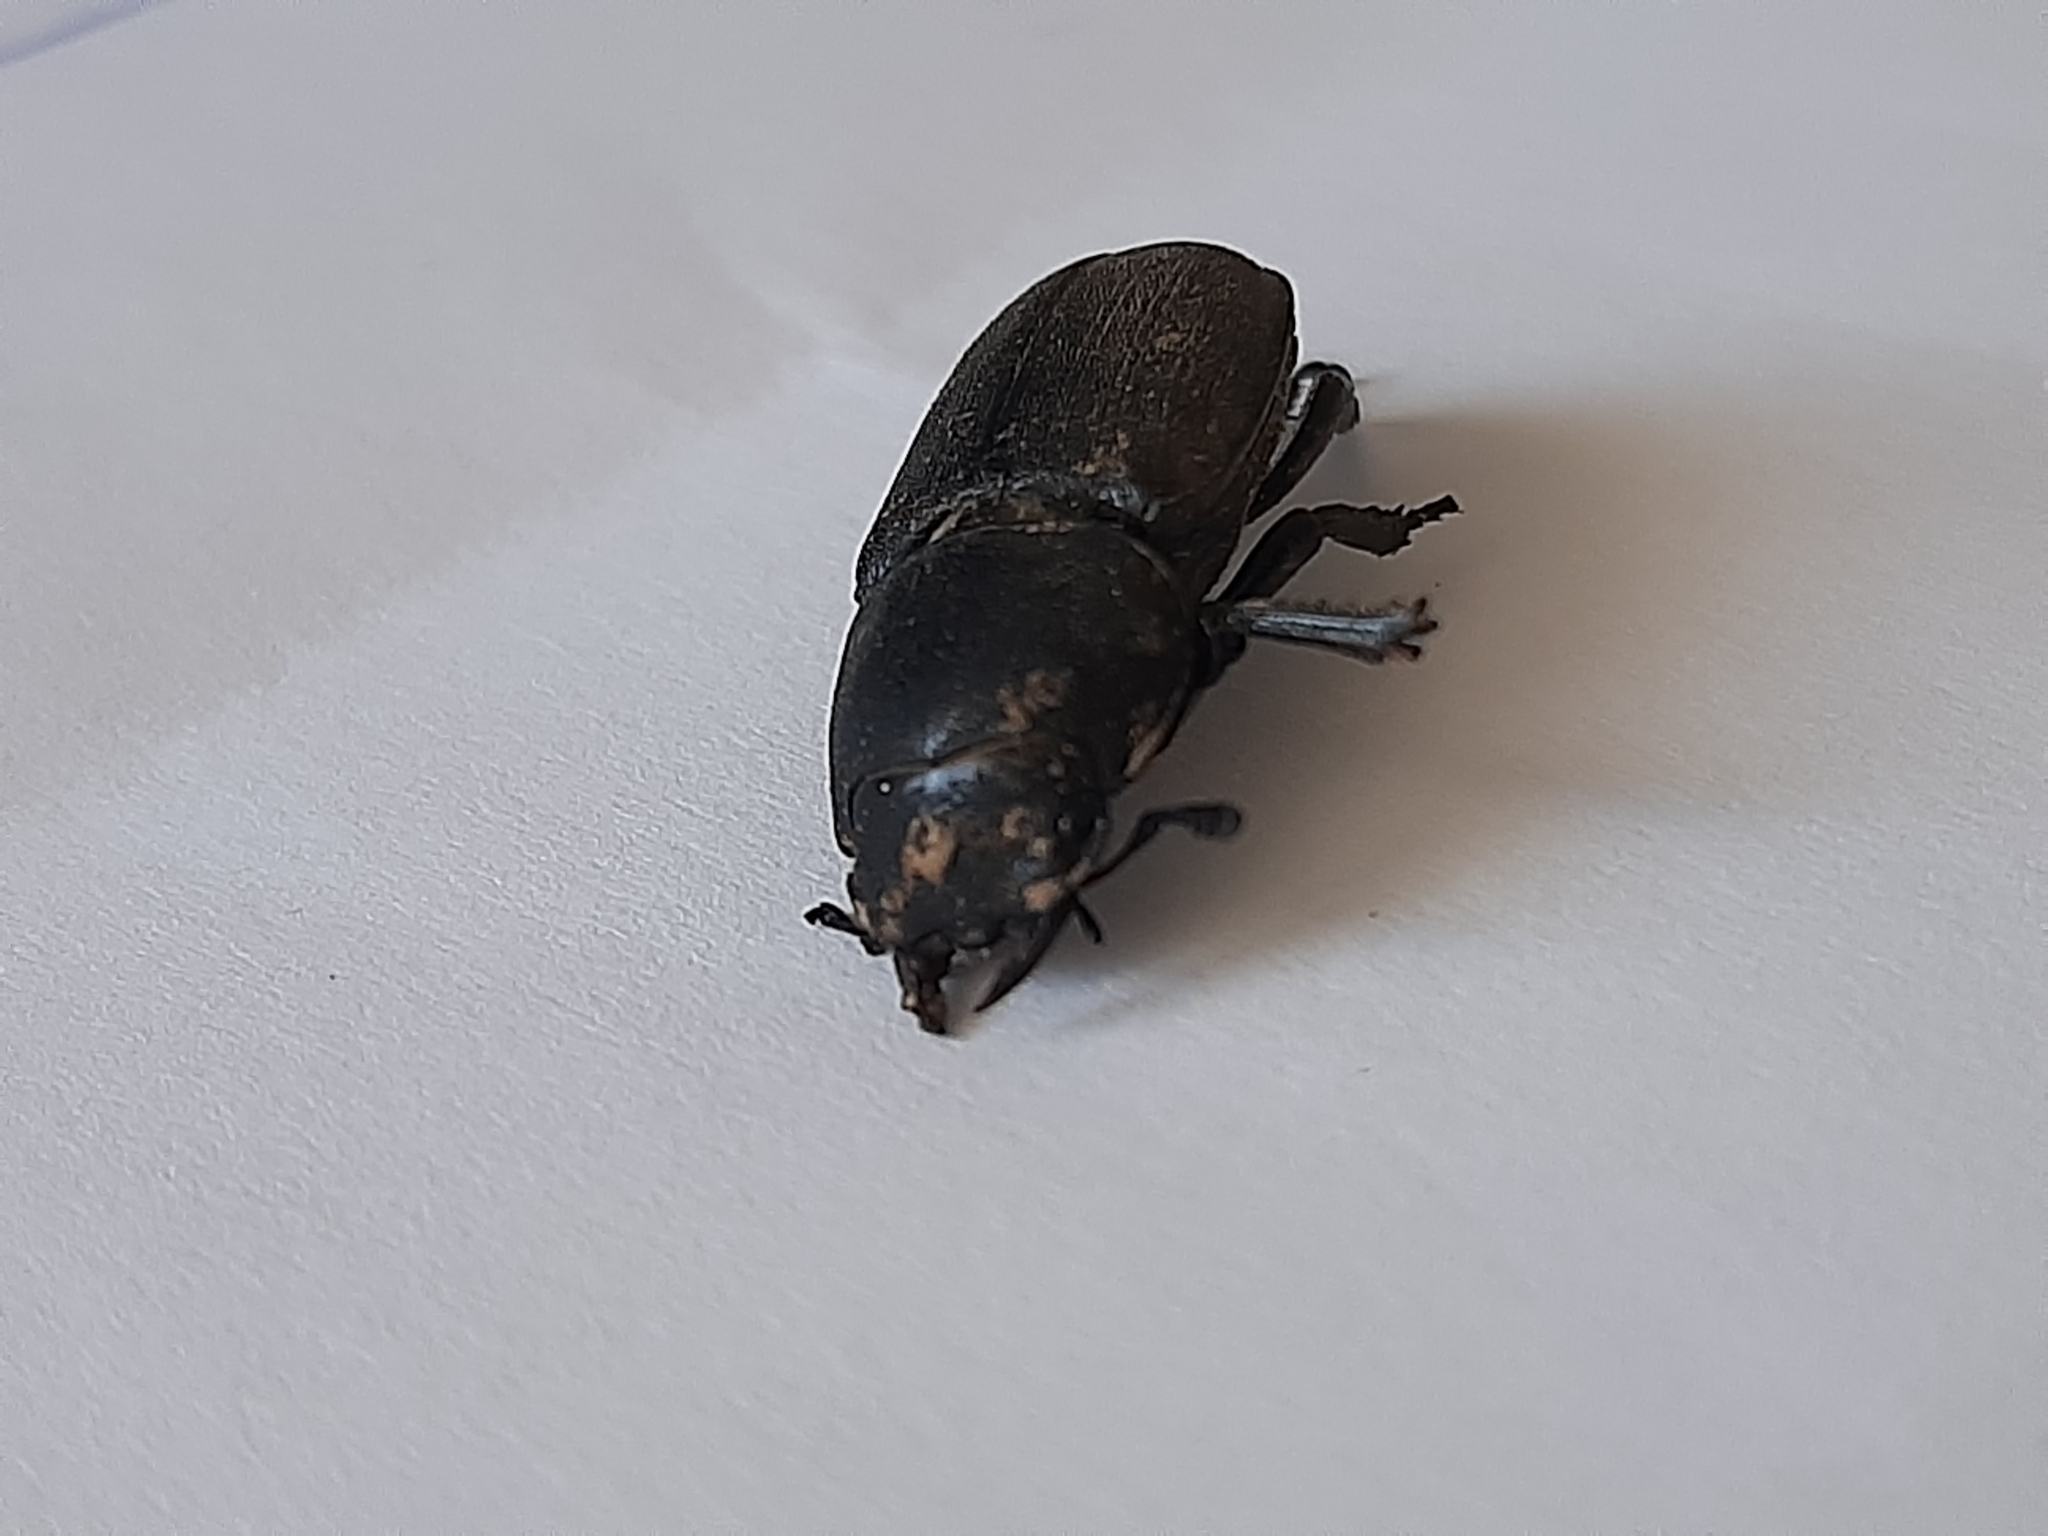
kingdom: Animalia
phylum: Arthropoda
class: Insecta
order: Coleoptera
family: Lucanidae
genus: Dorcus
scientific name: Dorcus parallelipipedus
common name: Lesser stag beetle
